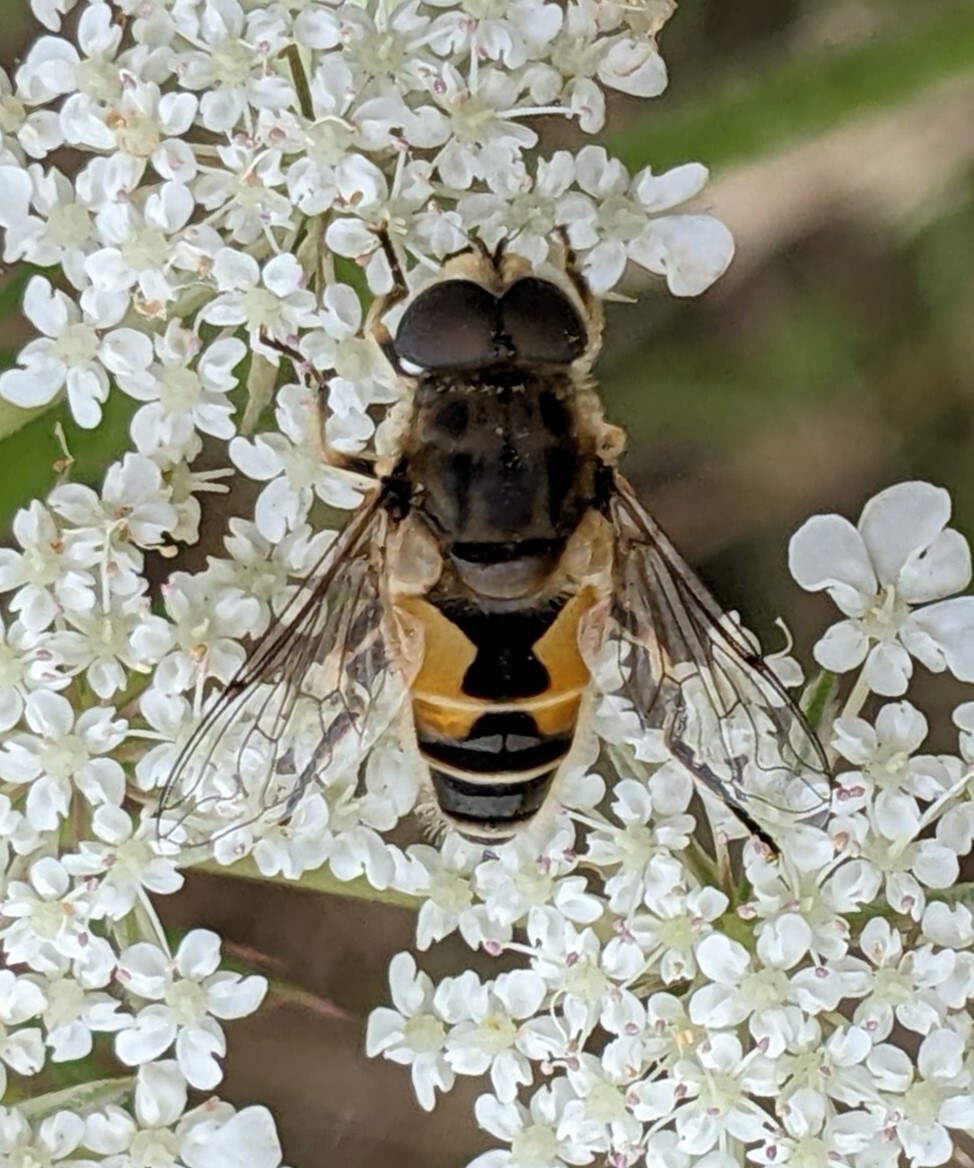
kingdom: Animalia
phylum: Arthropoda
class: Insecta
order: Diptera
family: Syrphidae
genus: Eristalis
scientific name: Eristalis arbustorum
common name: Hover fly
